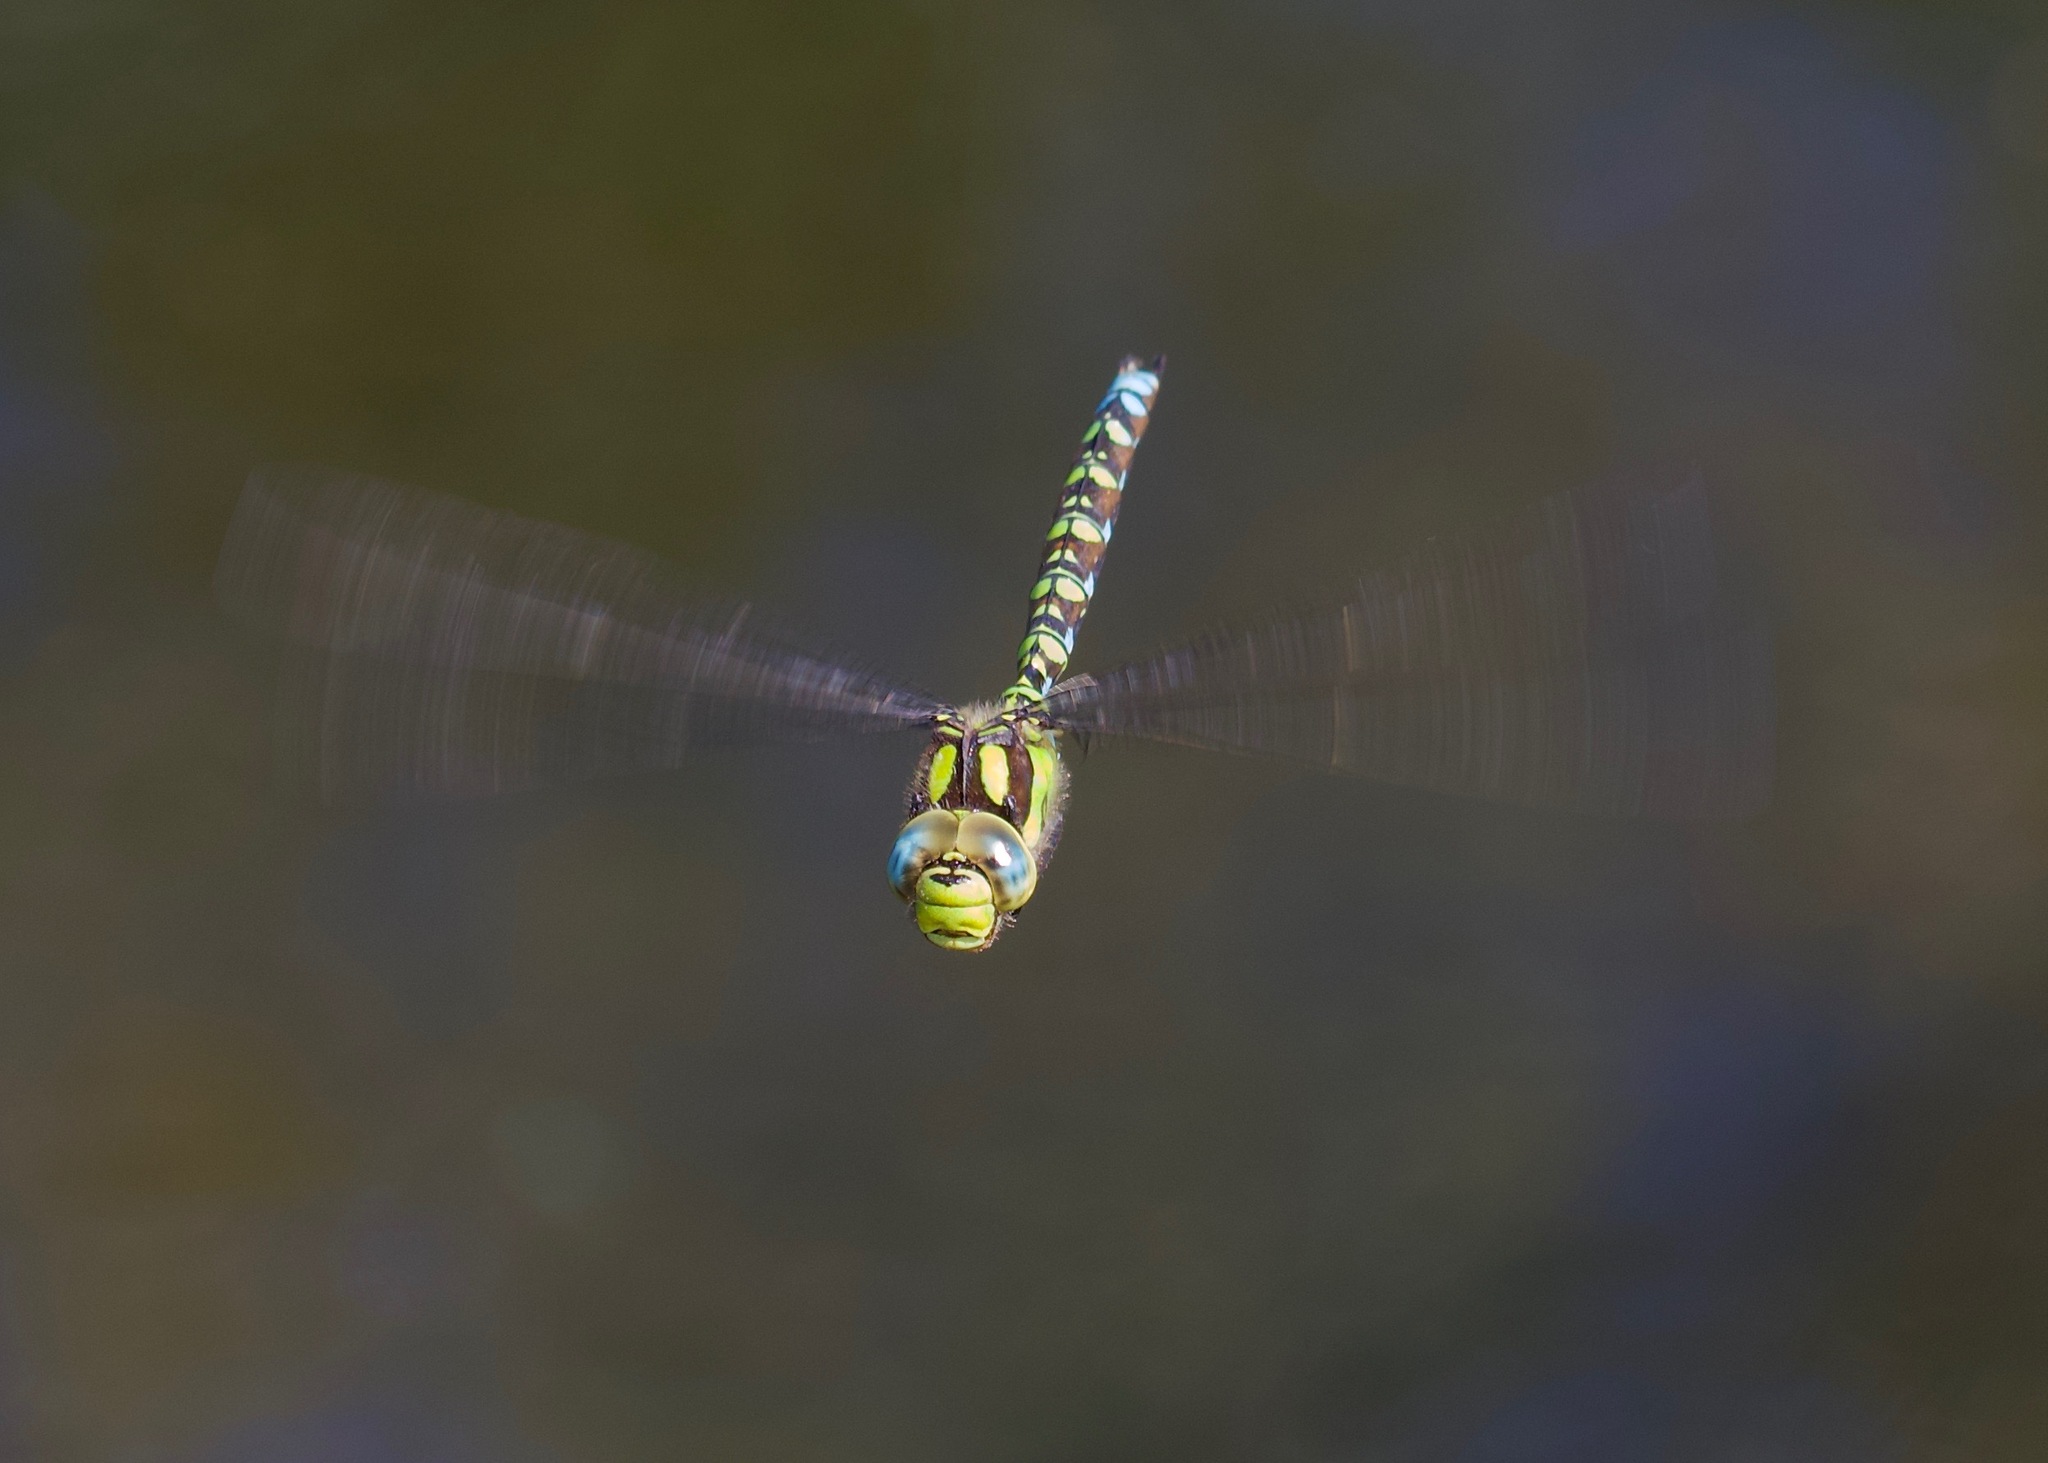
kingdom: Animalia
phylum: Arthropoda
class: Insecta
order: Odonata
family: Aeshnidae
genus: Aeshna
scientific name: Aeshna cyanea
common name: Southern hawker
